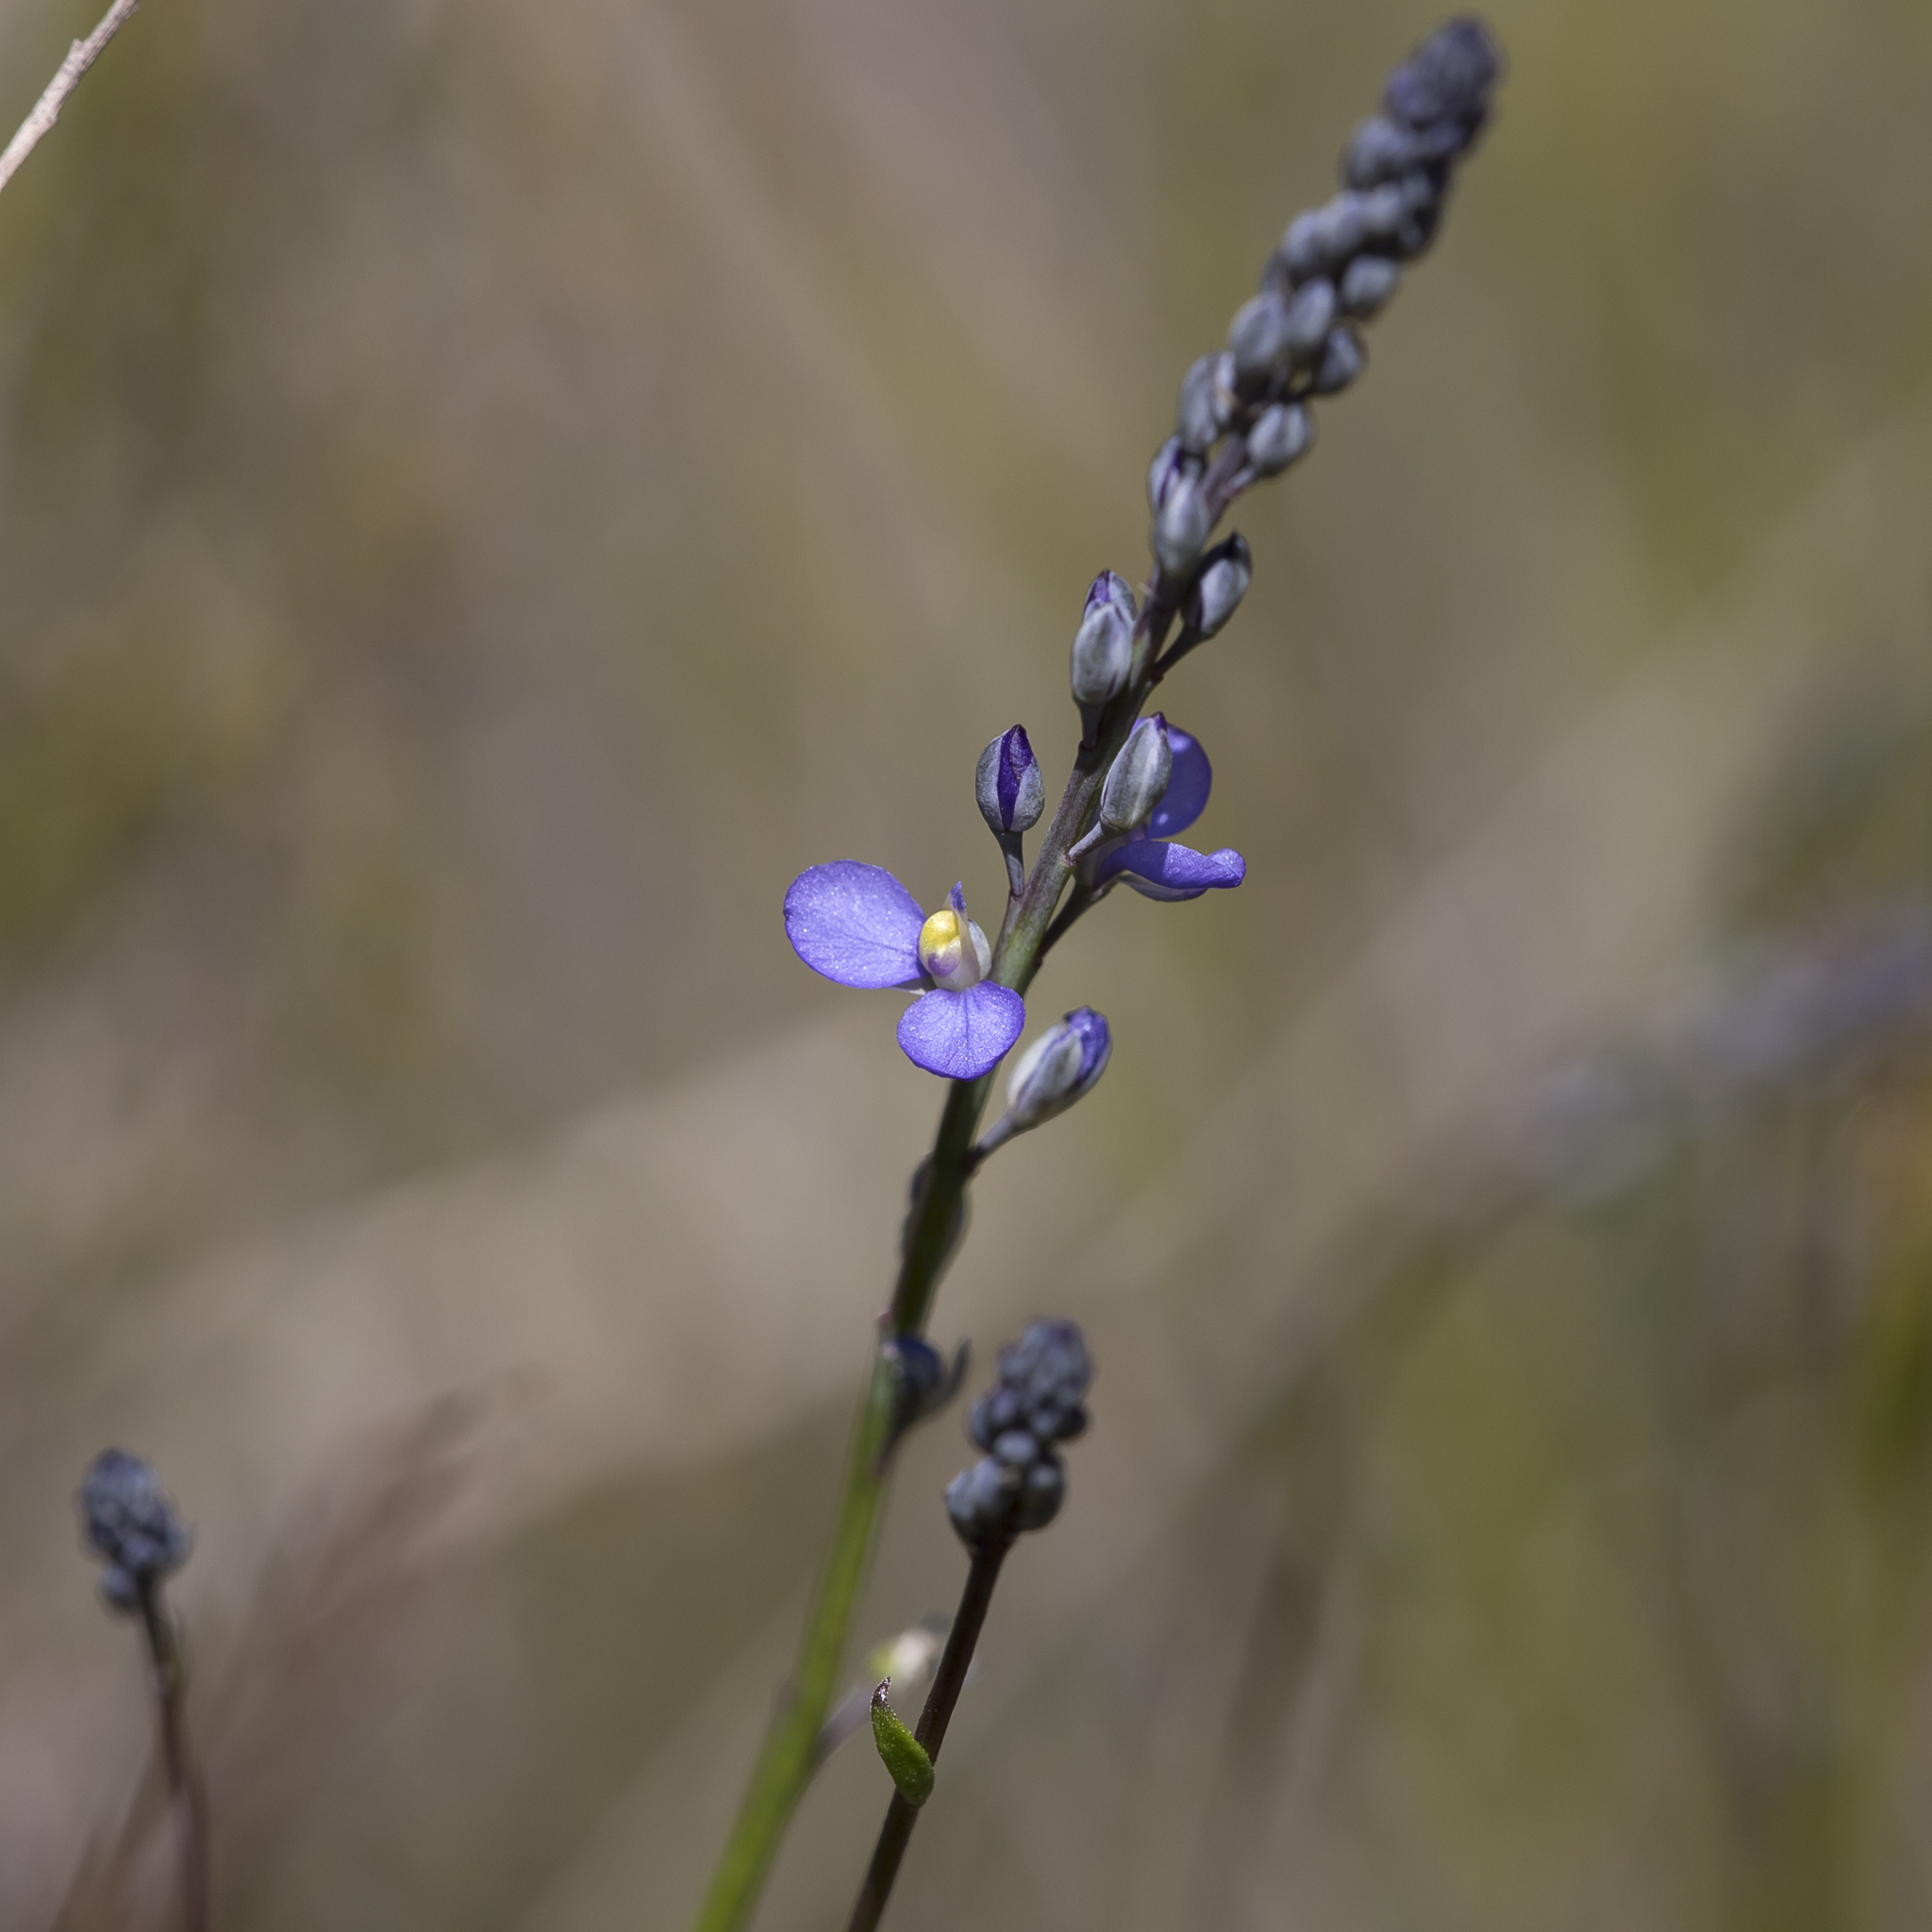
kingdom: Plantae
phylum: Tracheophyta
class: Magnoliopsida
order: Fabales
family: Polygalaceae
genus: Comesperma
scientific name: Comesperma calymega
